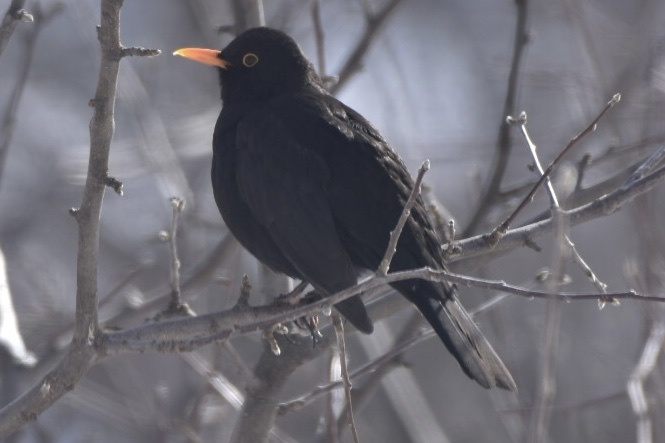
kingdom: Animalia
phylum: Chordata
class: Aves
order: Passeriformes
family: Turdidae
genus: Turdus
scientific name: Turdus merula
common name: Common blackbird
